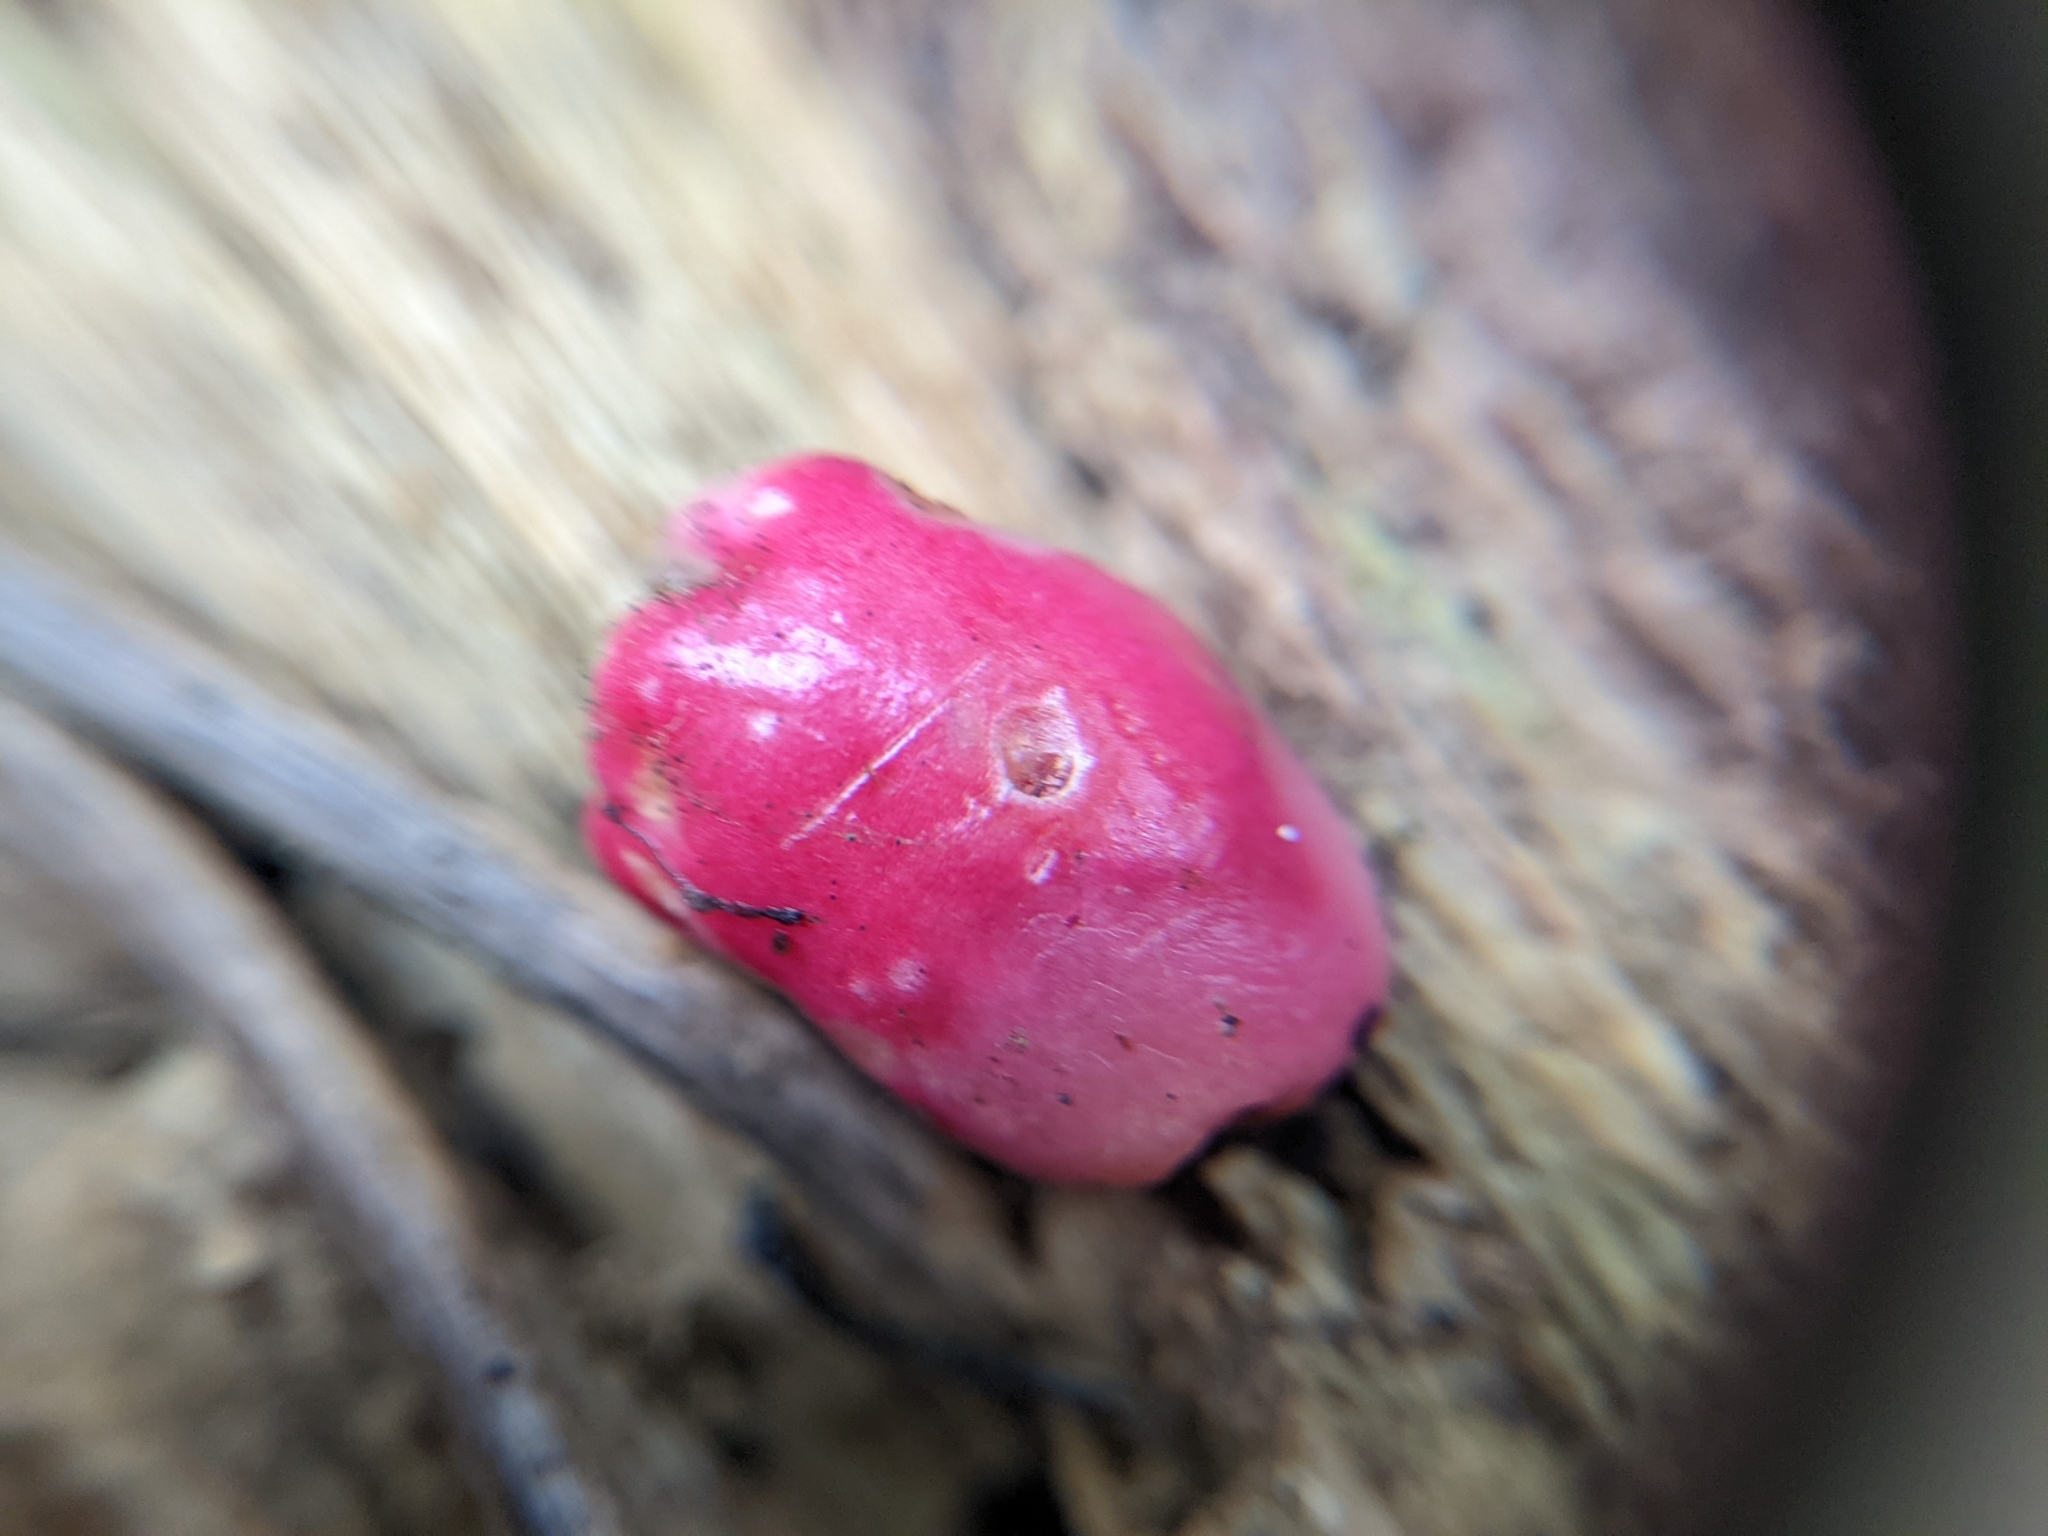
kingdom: Plantae
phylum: Tracheophyta
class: Magnoliopsida
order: Myrtales
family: Myrtaceae
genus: Syzygium
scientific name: Syzygium australe
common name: Australian brush-cherry
